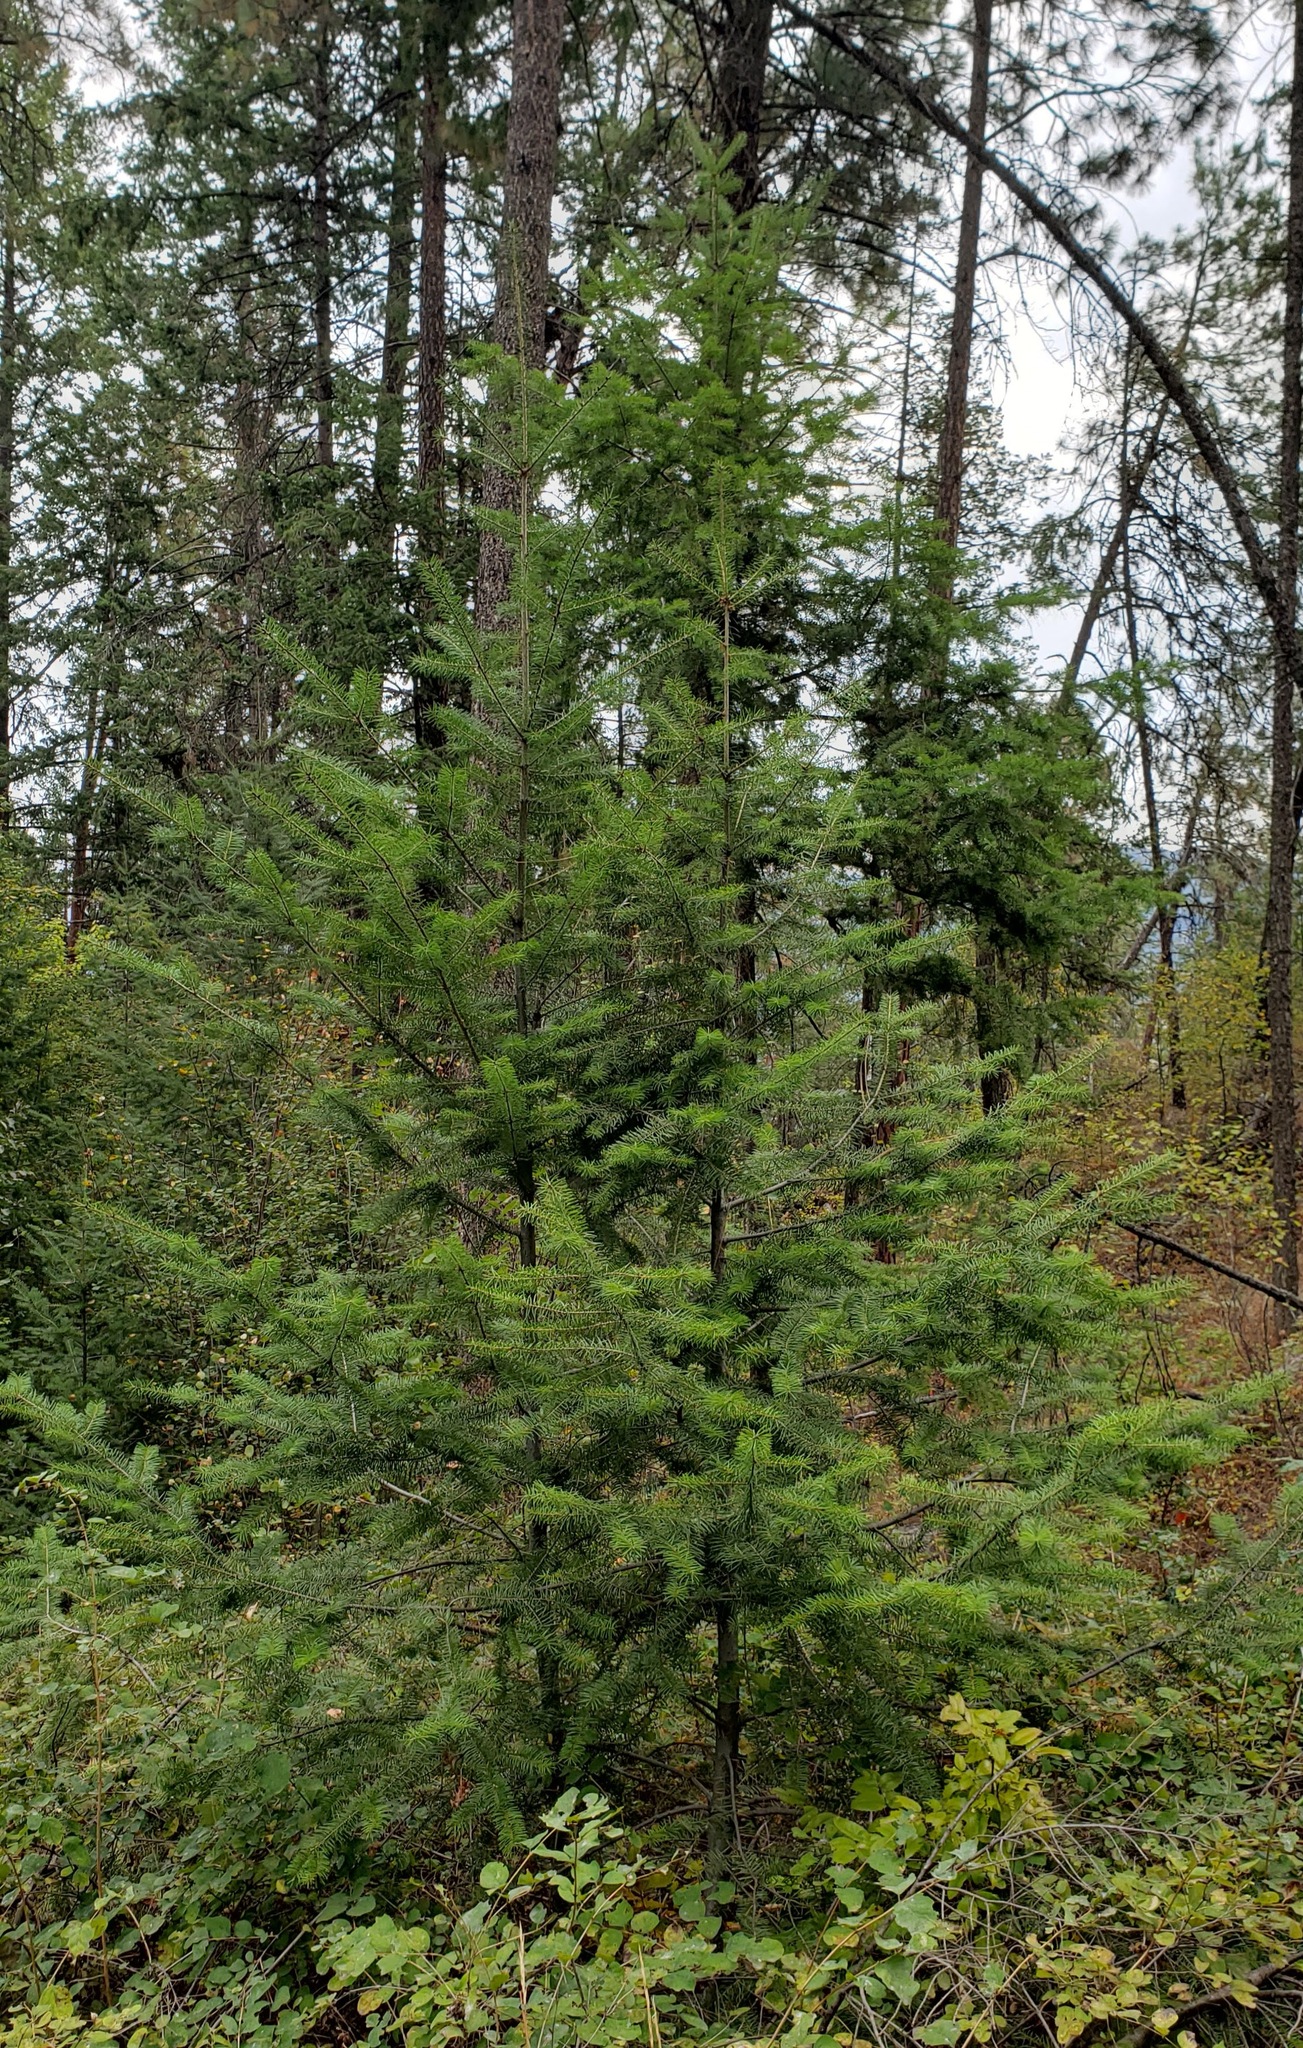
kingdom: Plantae
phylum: Tracheophyta
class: Pinopsida
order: Pinales
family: Pinaceae
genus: Pseudotsuga
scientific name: Pseudotsuga menziesii
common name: Douglas fir
